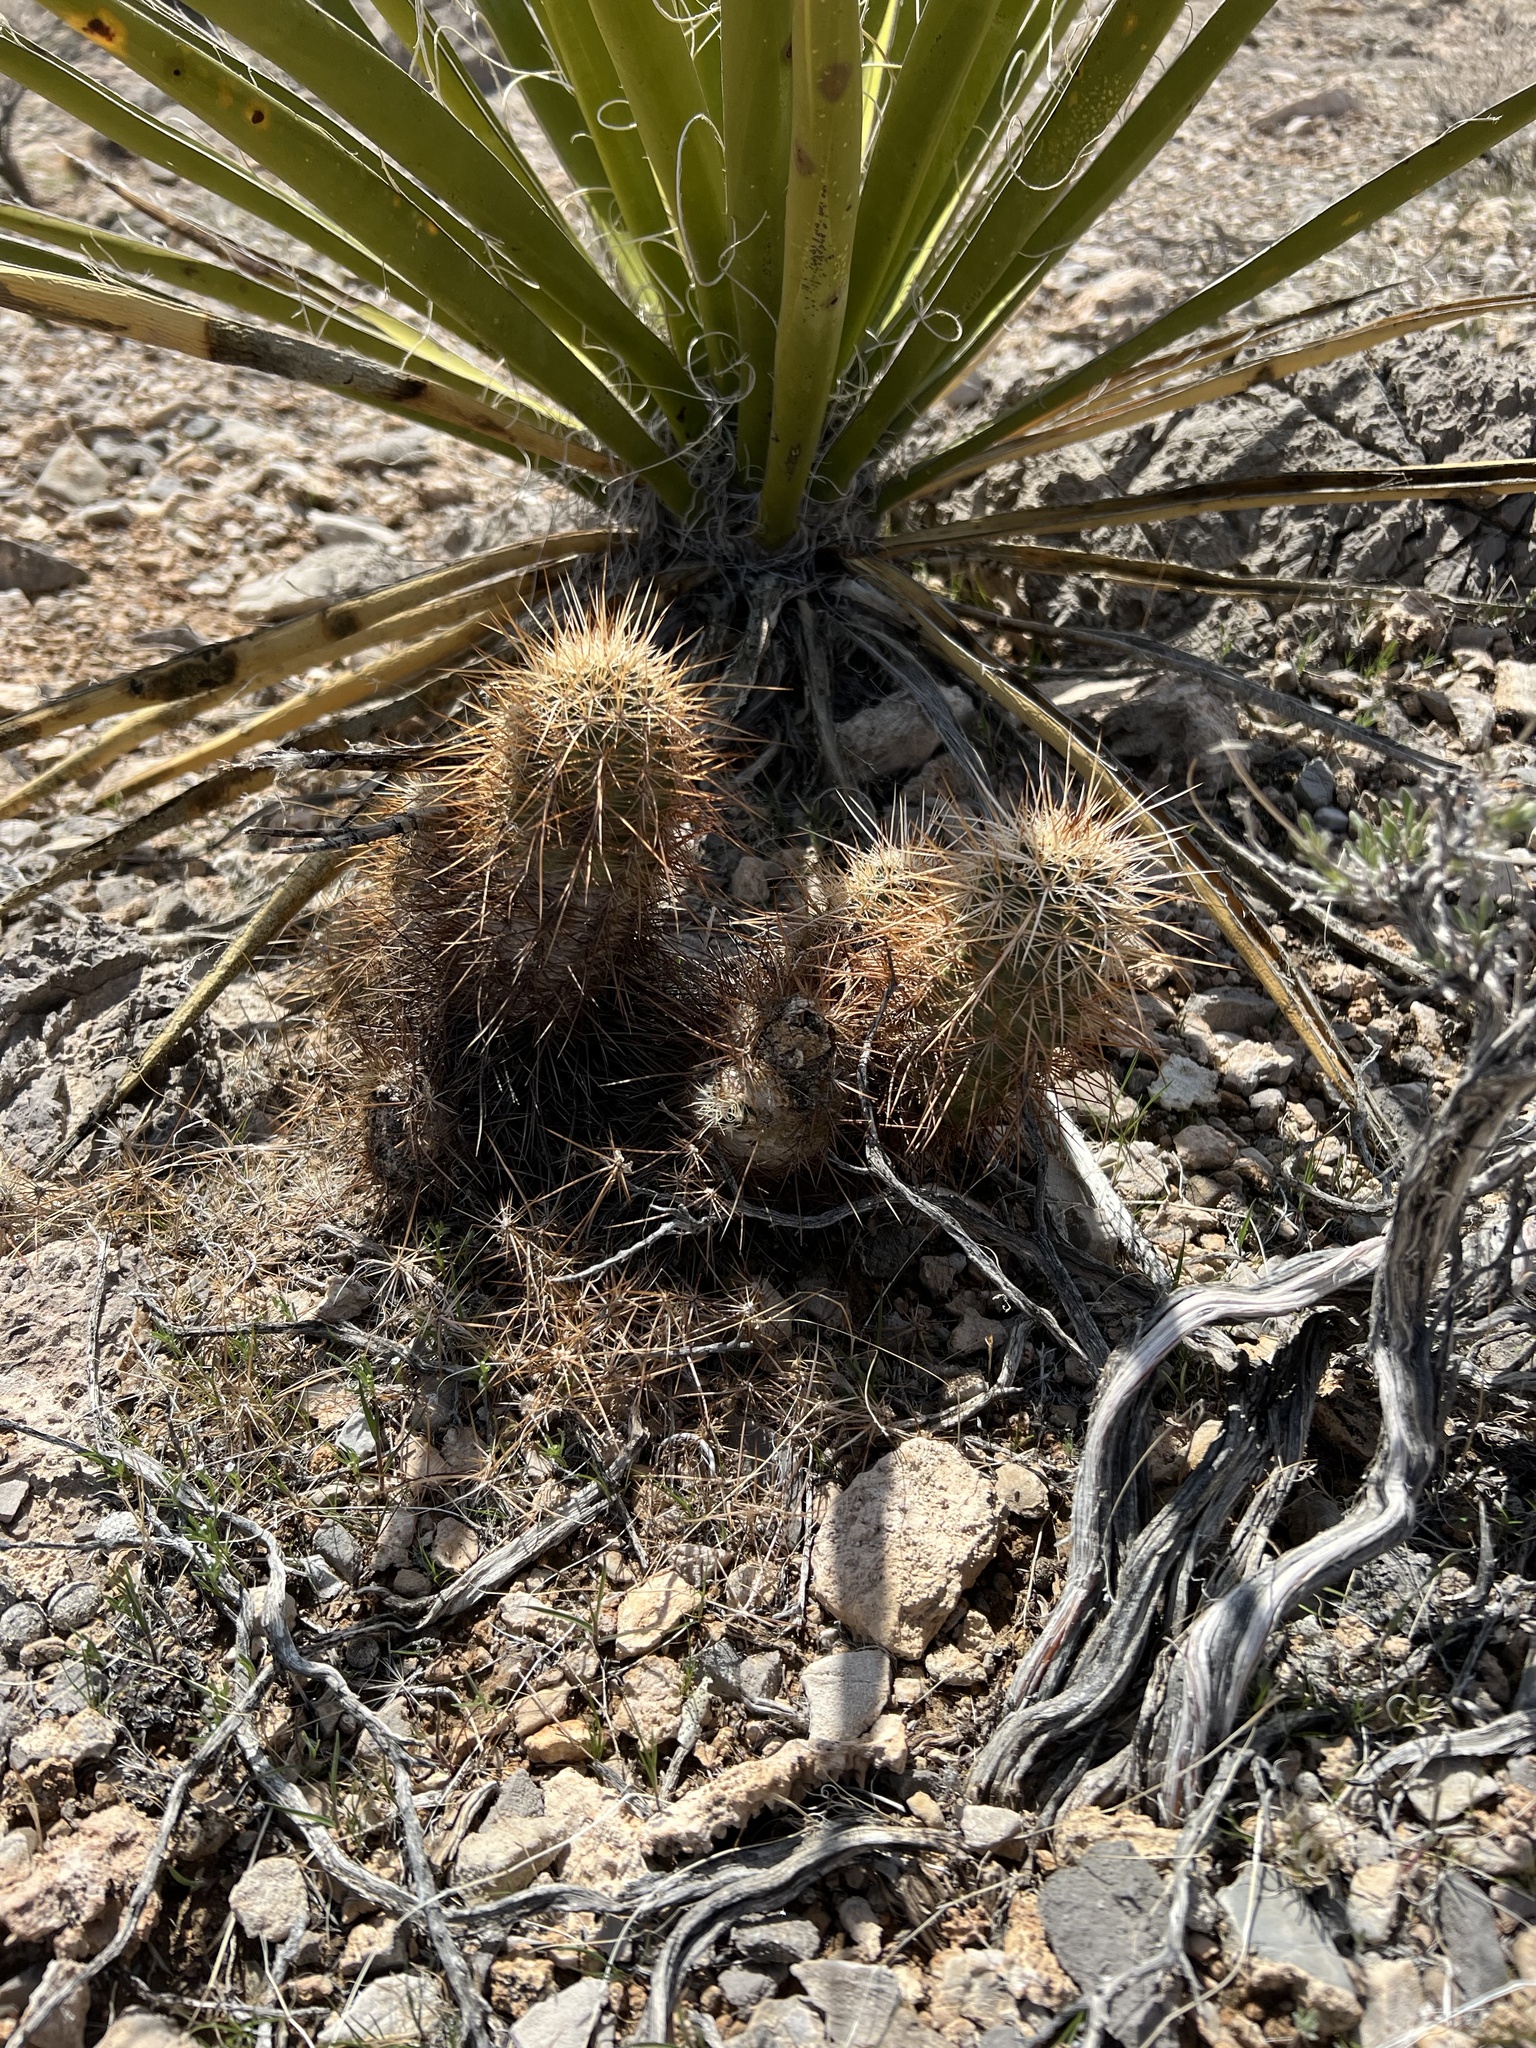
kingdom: Plantae
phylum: Tracheophyta
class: Magnoliopsida
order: Caryophyllales
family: Cactaceae
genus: Echinocereus
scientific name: Echinocereus engelmannii
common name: Engelmann's hedgehog cactus
